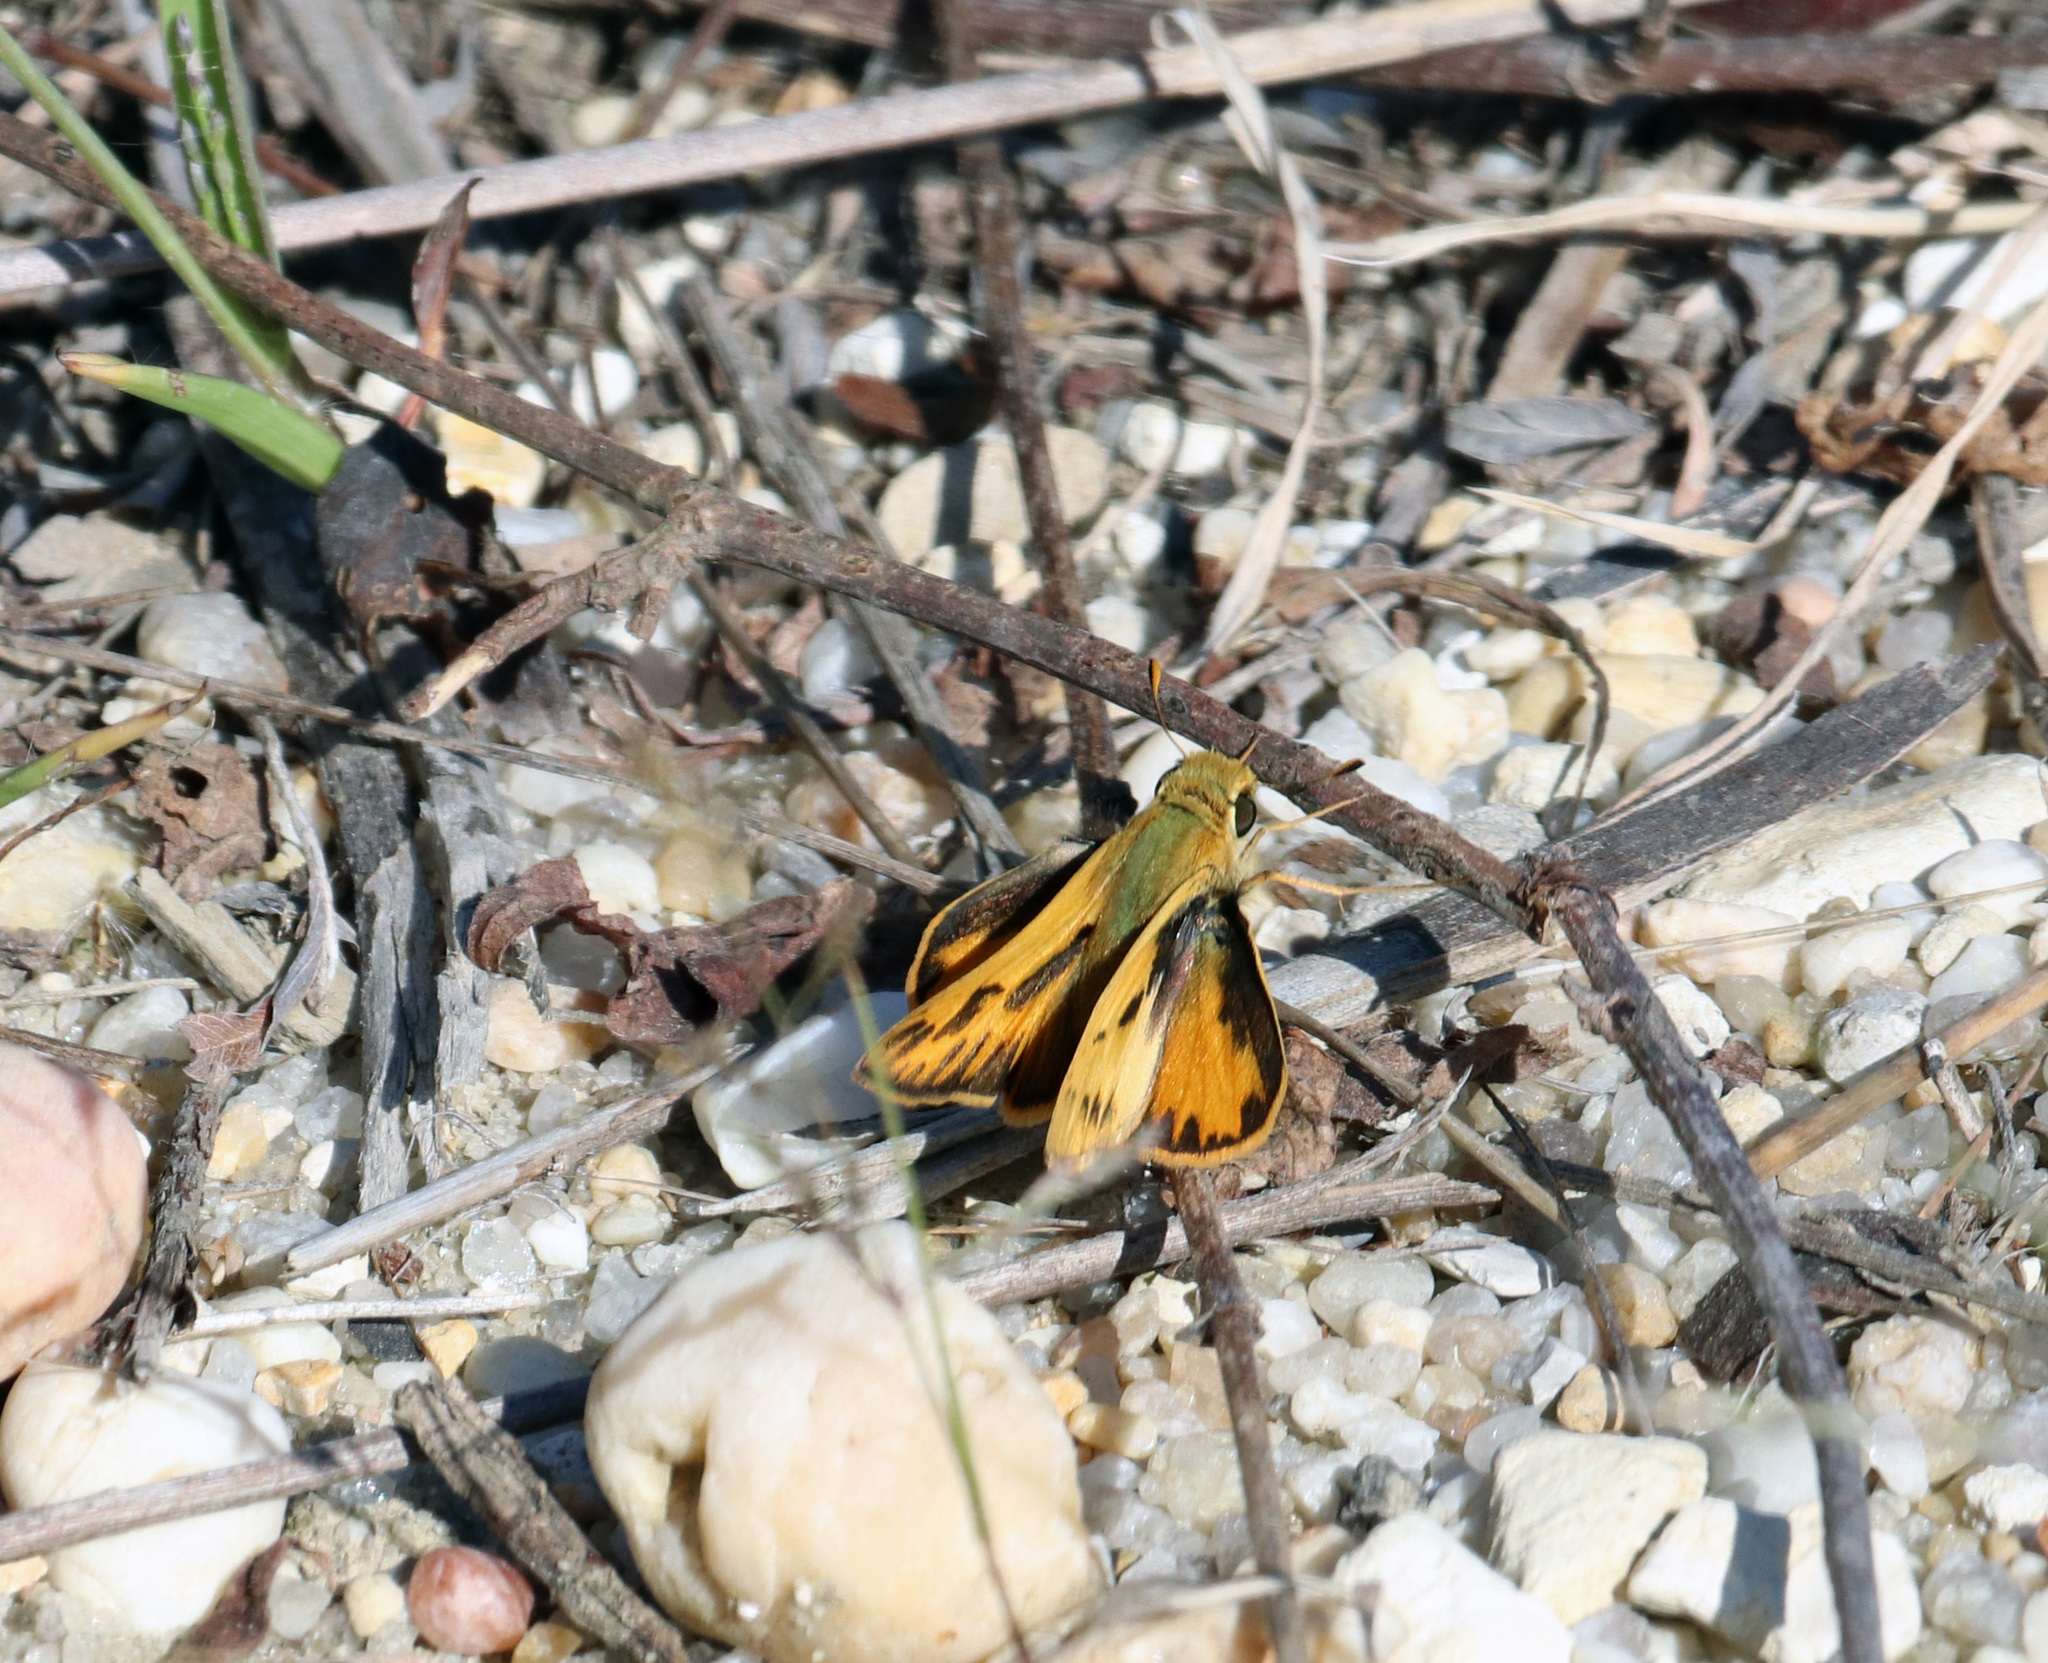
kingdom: Animalia
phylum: Arthropoda
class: Insecta
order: Lepidoptera
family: Hesperiidae
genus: Hylephila
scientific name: Hylephila phyleus
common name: Fiery skipper
